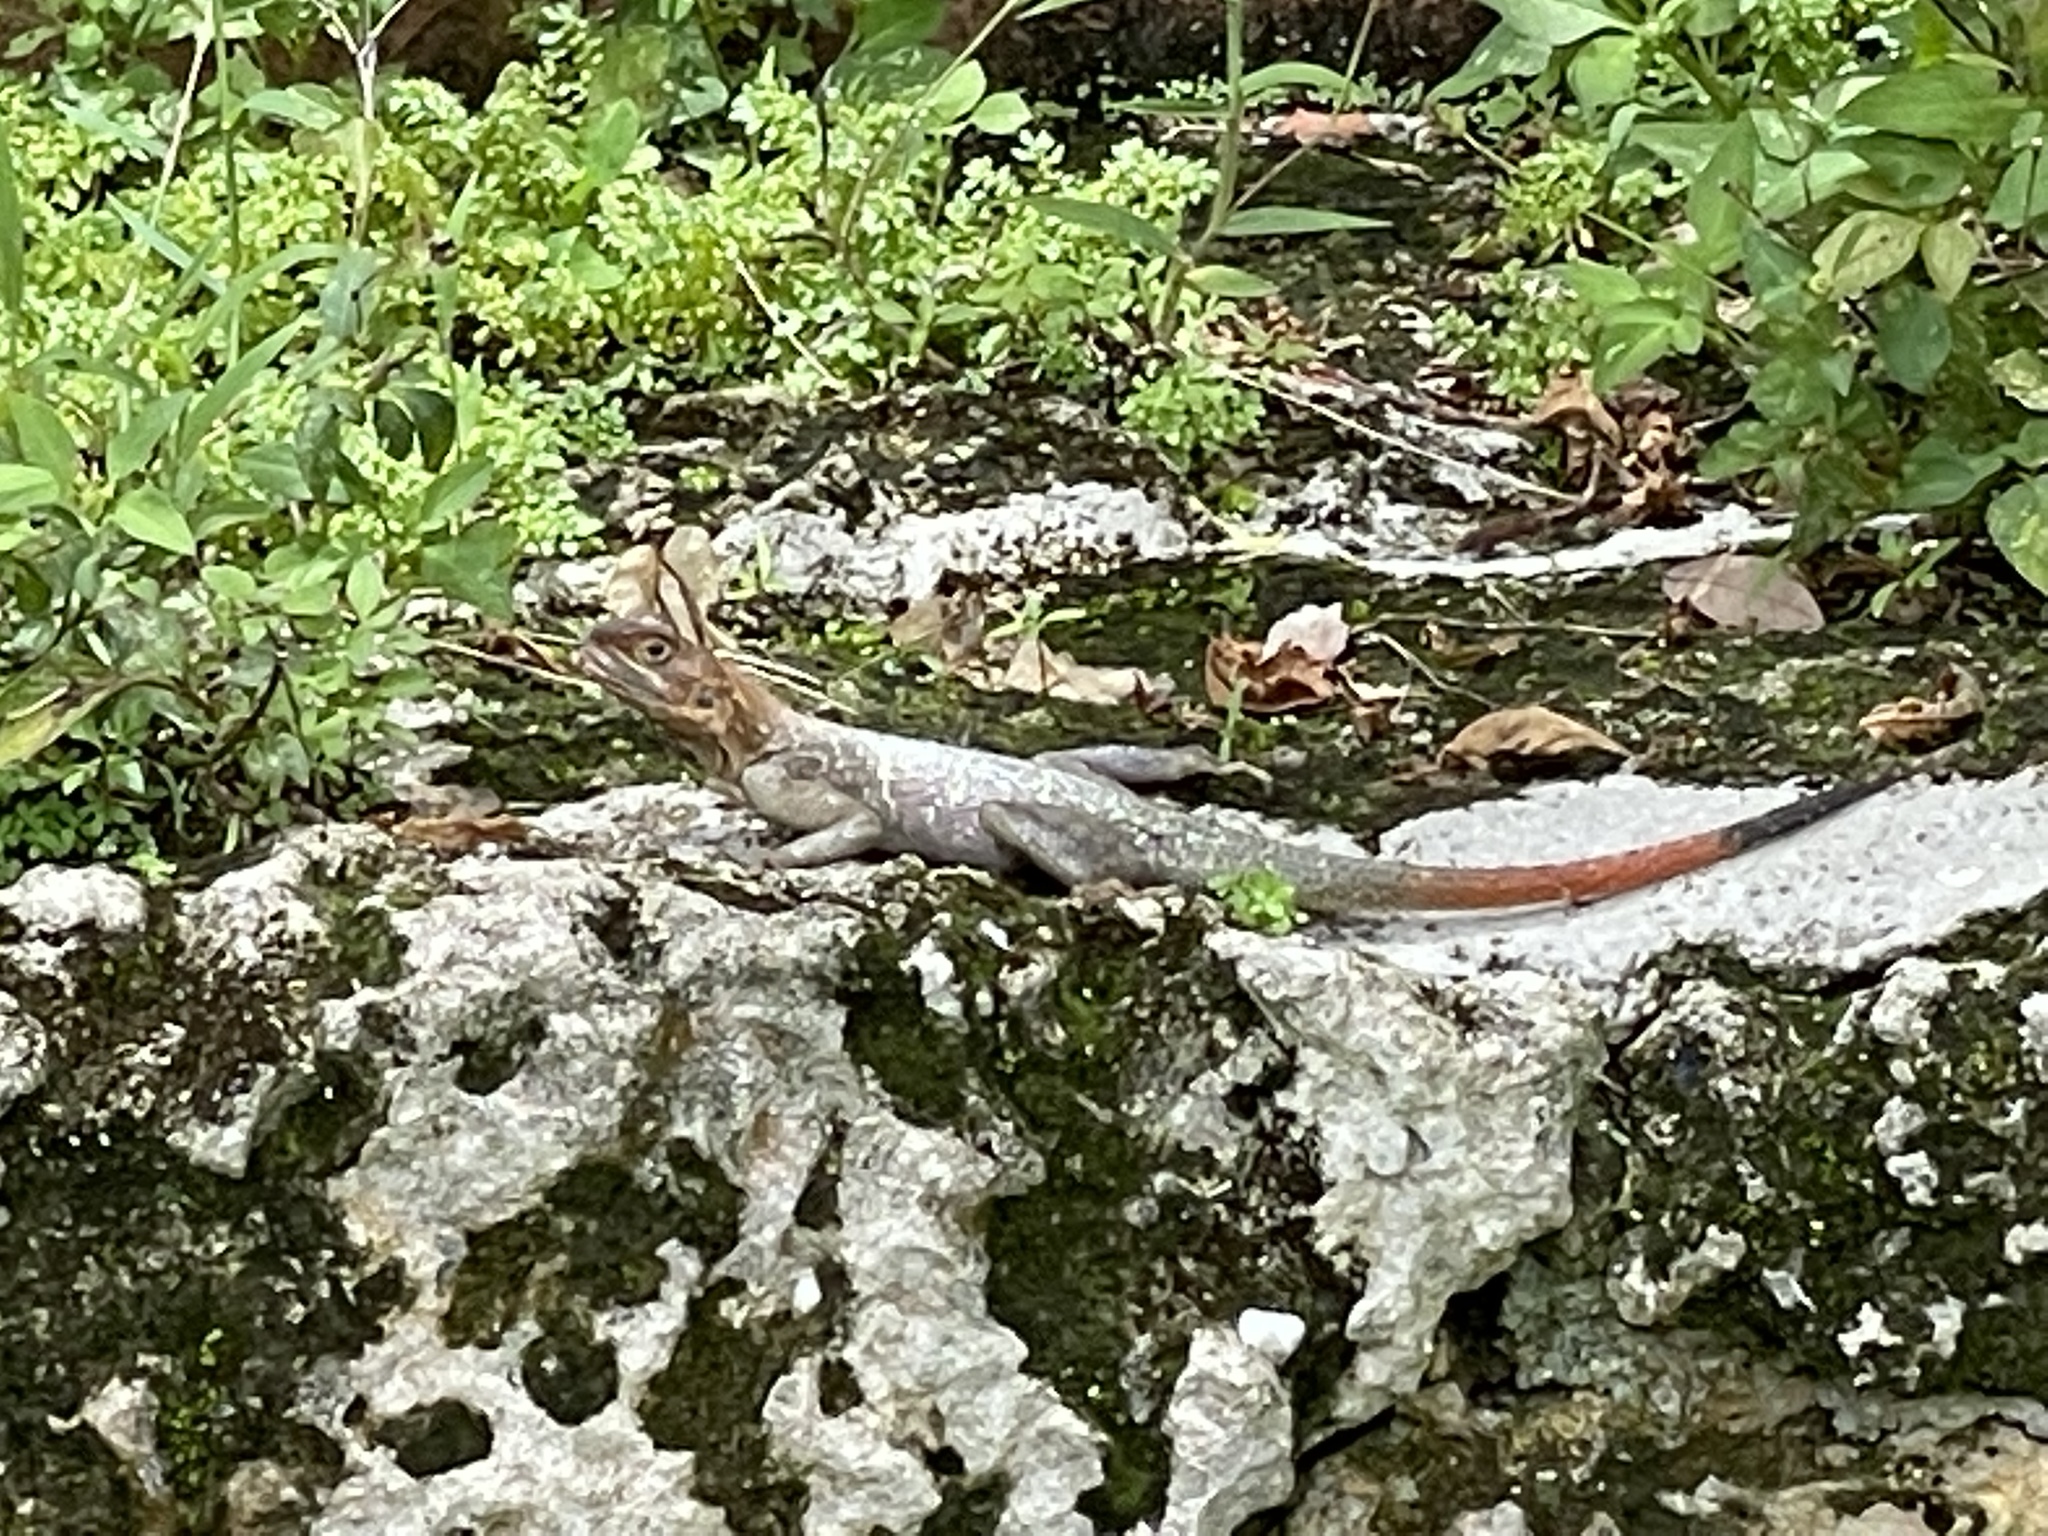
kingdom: Animalia
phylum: Chordata
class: Squamata
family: Agamidae
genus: Agama
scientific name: Agama picticauda
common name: Red-headed agama
